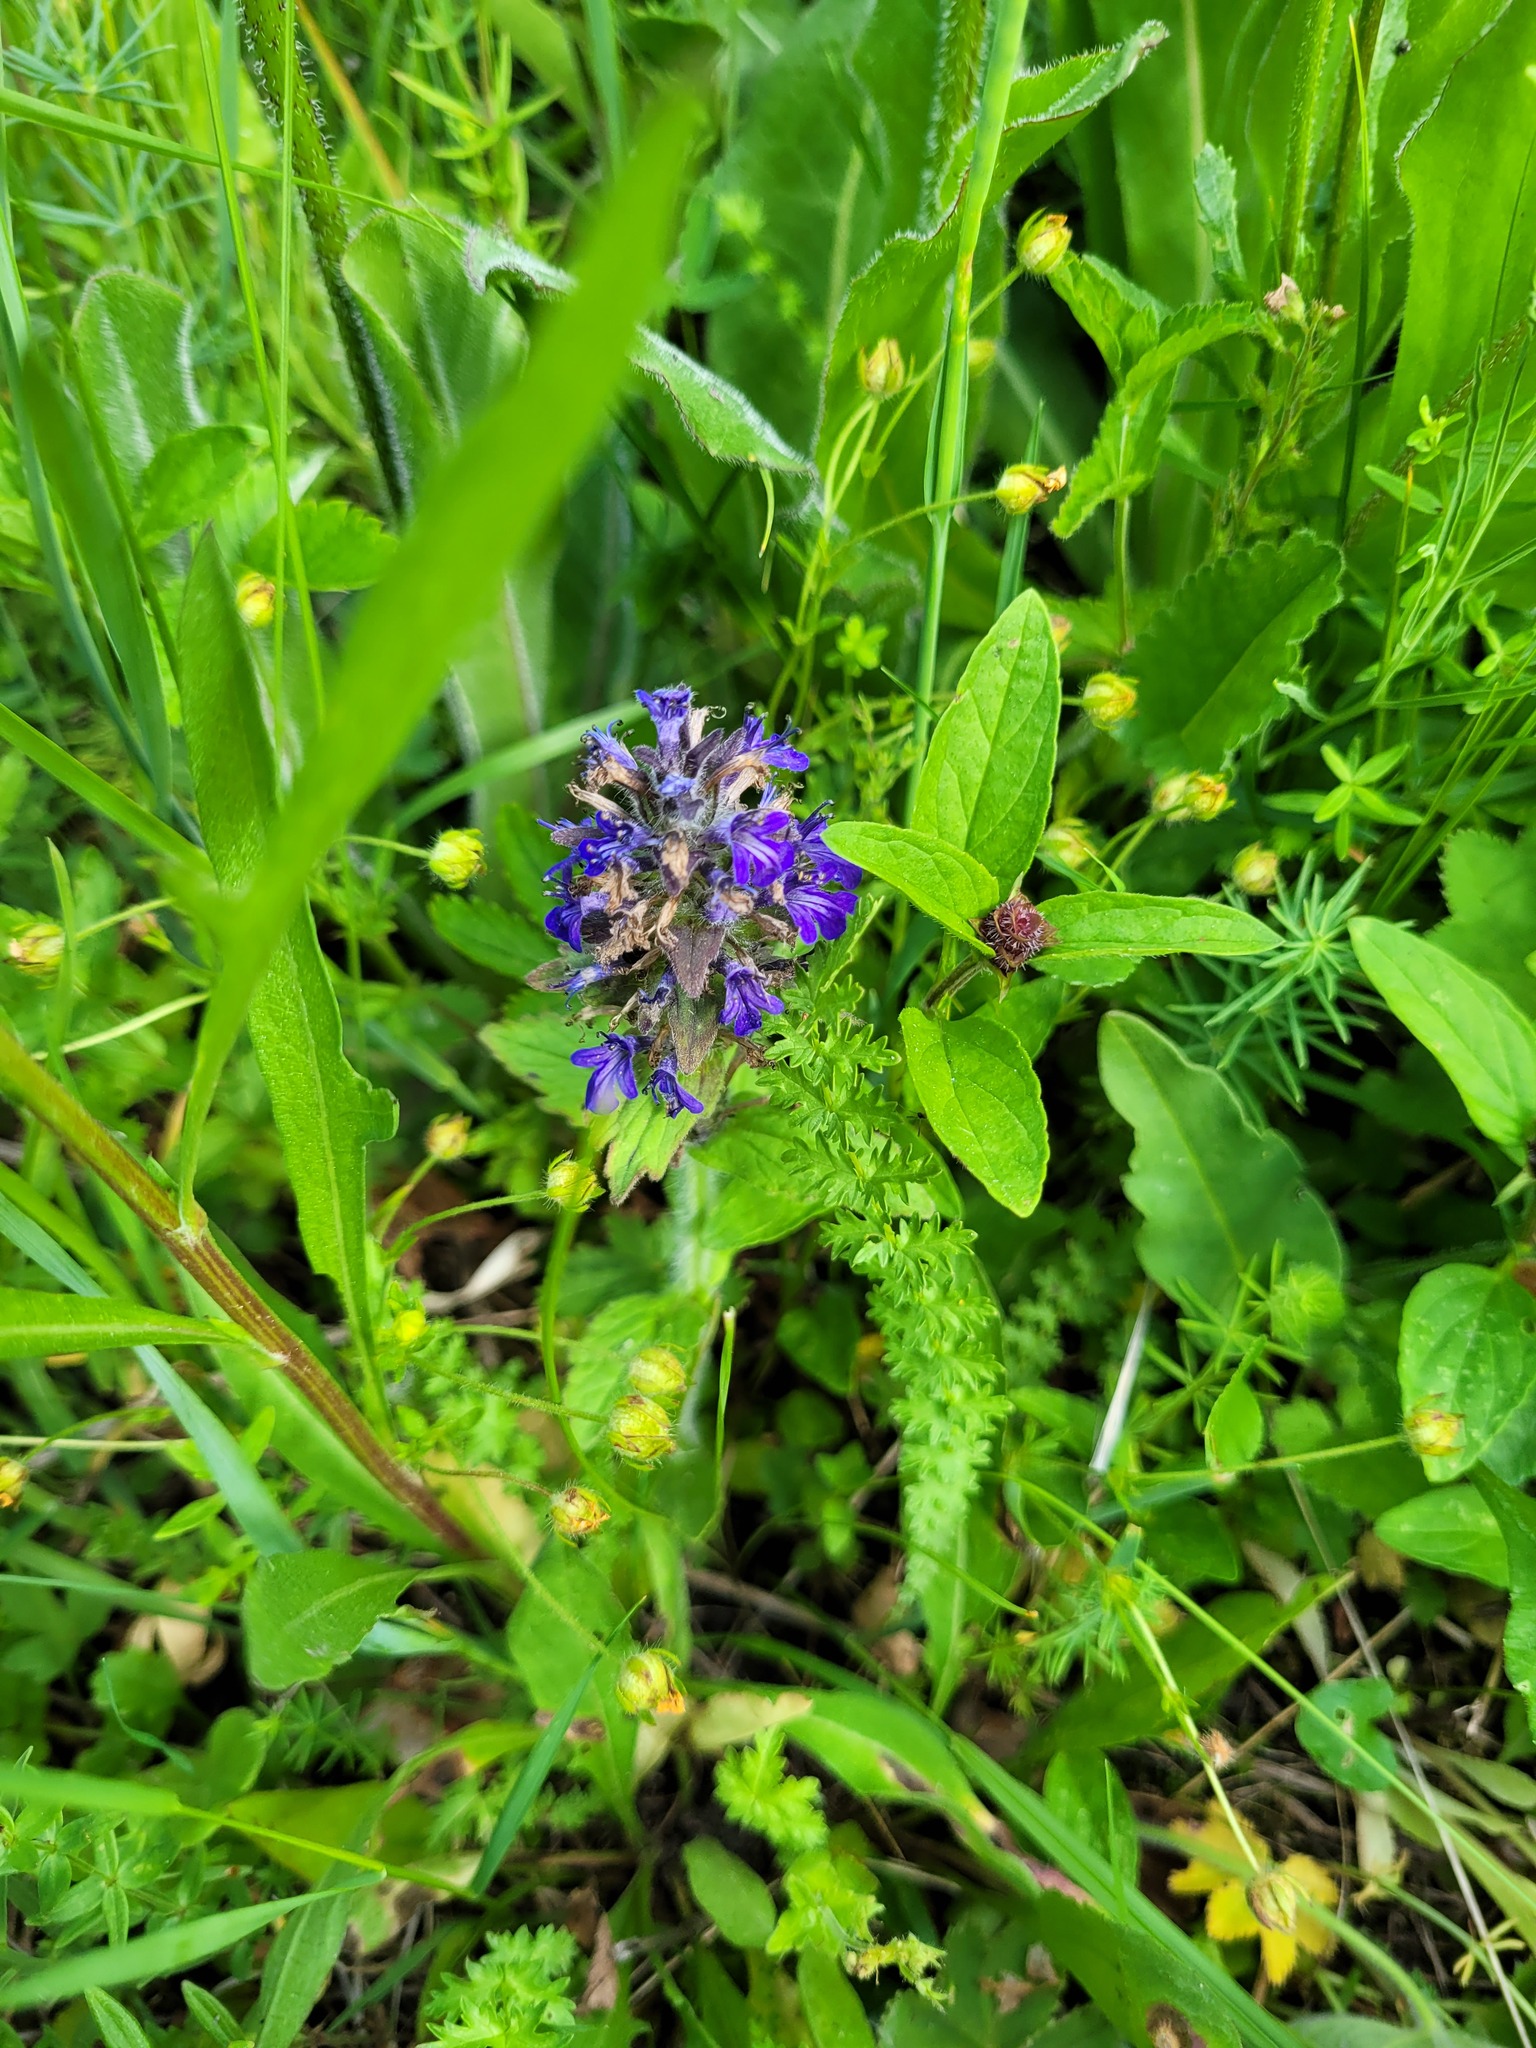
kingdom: Plantae
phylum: Tracheophyta
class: Magnoliopsida
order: Lamiales
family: Lamiaceae
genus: Ajuga
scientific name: Ajuga genevensis
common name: Blue bugle
